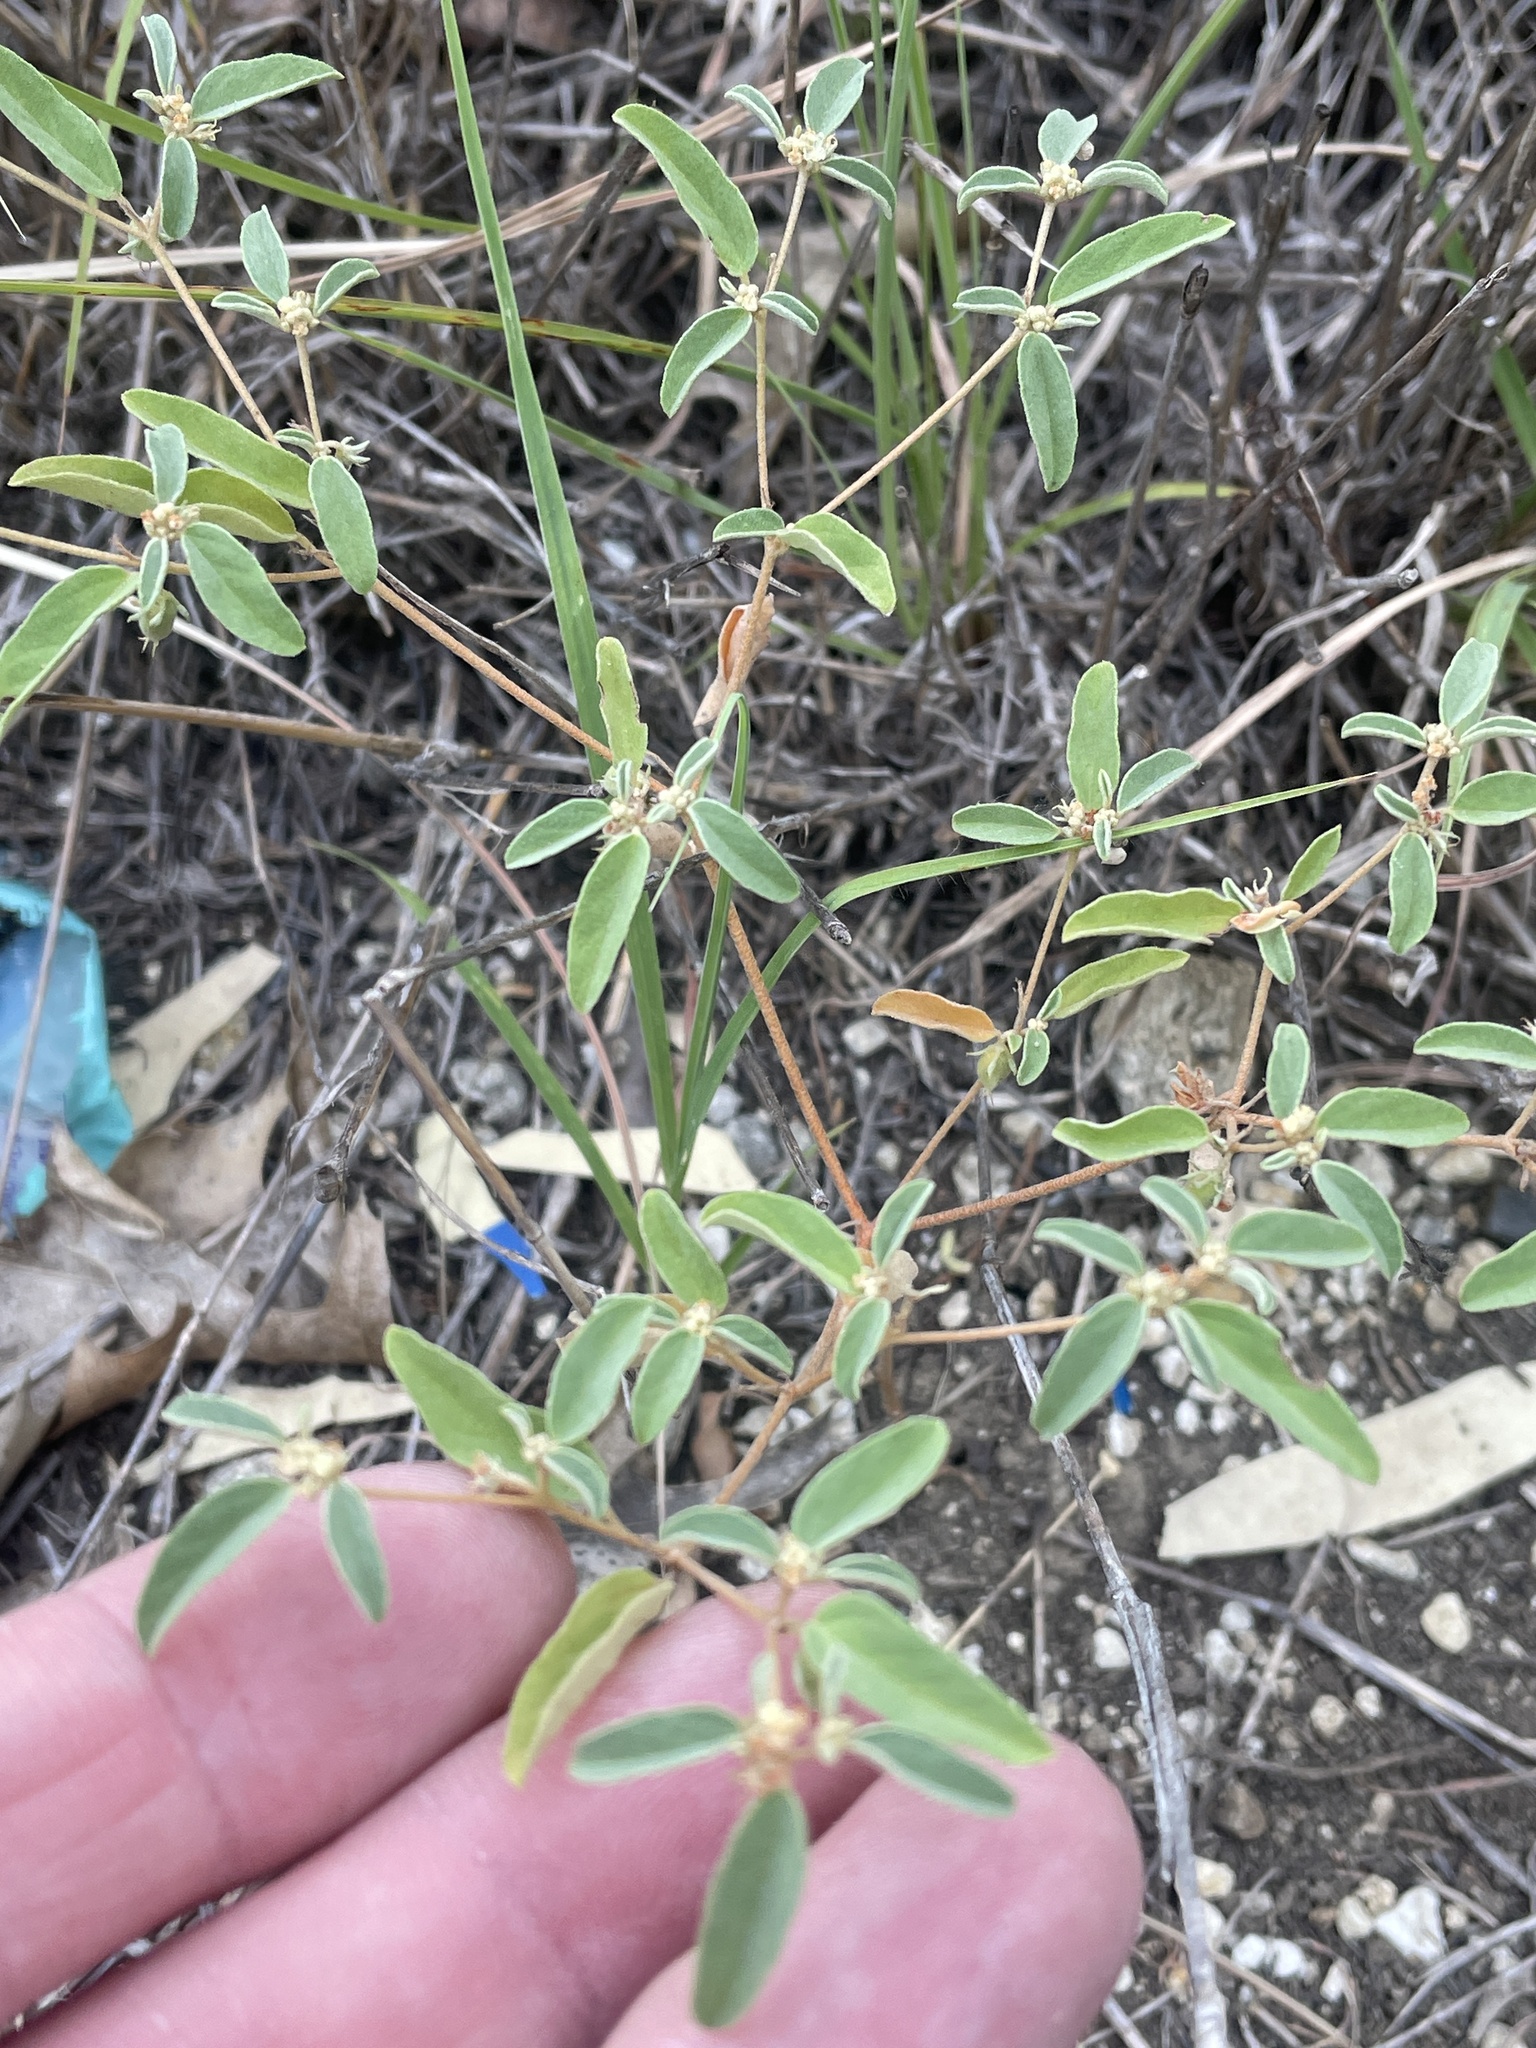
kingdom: Plantae
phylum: Tracheophyta
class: Magnoliopsida
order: Malpighiales
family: Euphorbiaceae
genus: Croton
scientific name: Croton monanthogynus
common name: One-seed croton
